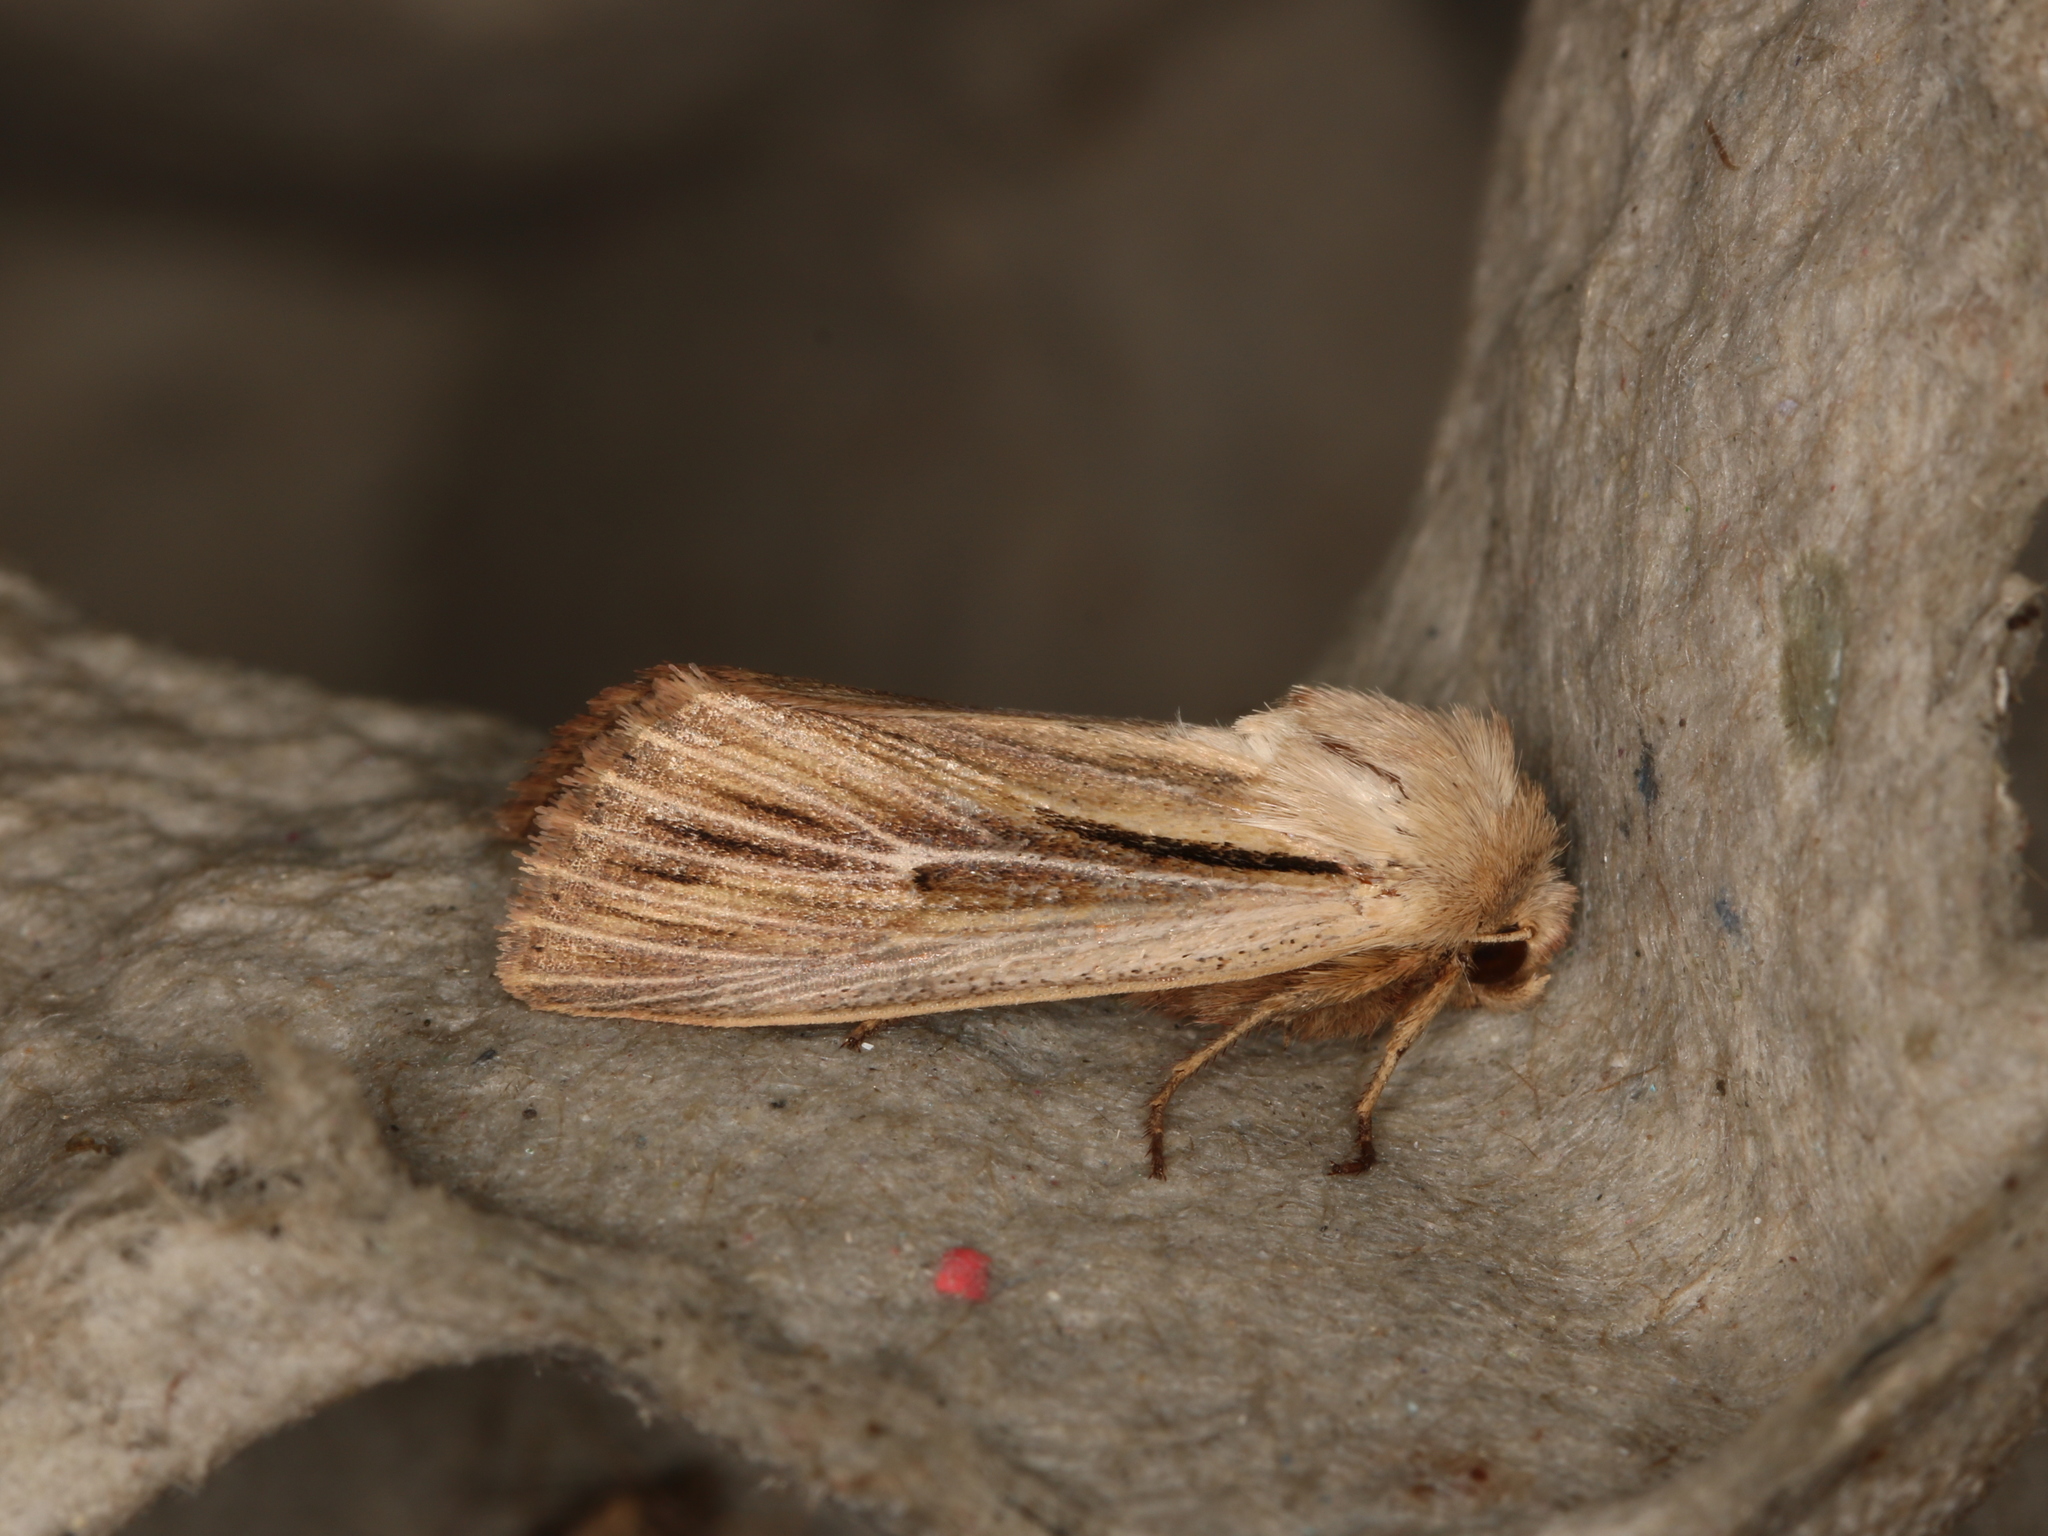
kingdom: Animalia
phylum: Arthropoda
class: Insecta
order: Lepidoptera
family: Noctuidae
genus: Leucania
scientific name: Leucania comma
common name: Shoulder-striped wainscot
